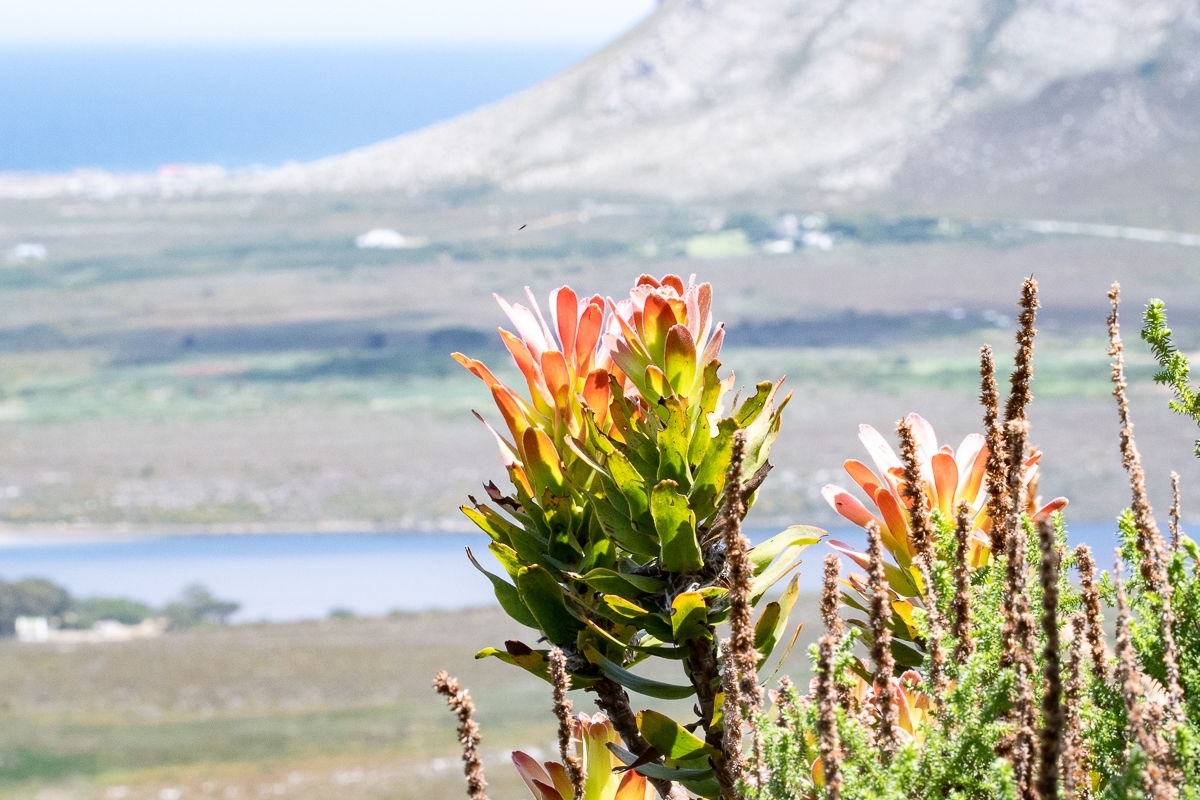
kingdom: Plantae
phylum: Tracheophyta
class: Magnoliopsida
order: Proteales
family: Proteaceae
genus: Mimetes
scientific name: Mimetes cucullatus
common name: Common pagoda
